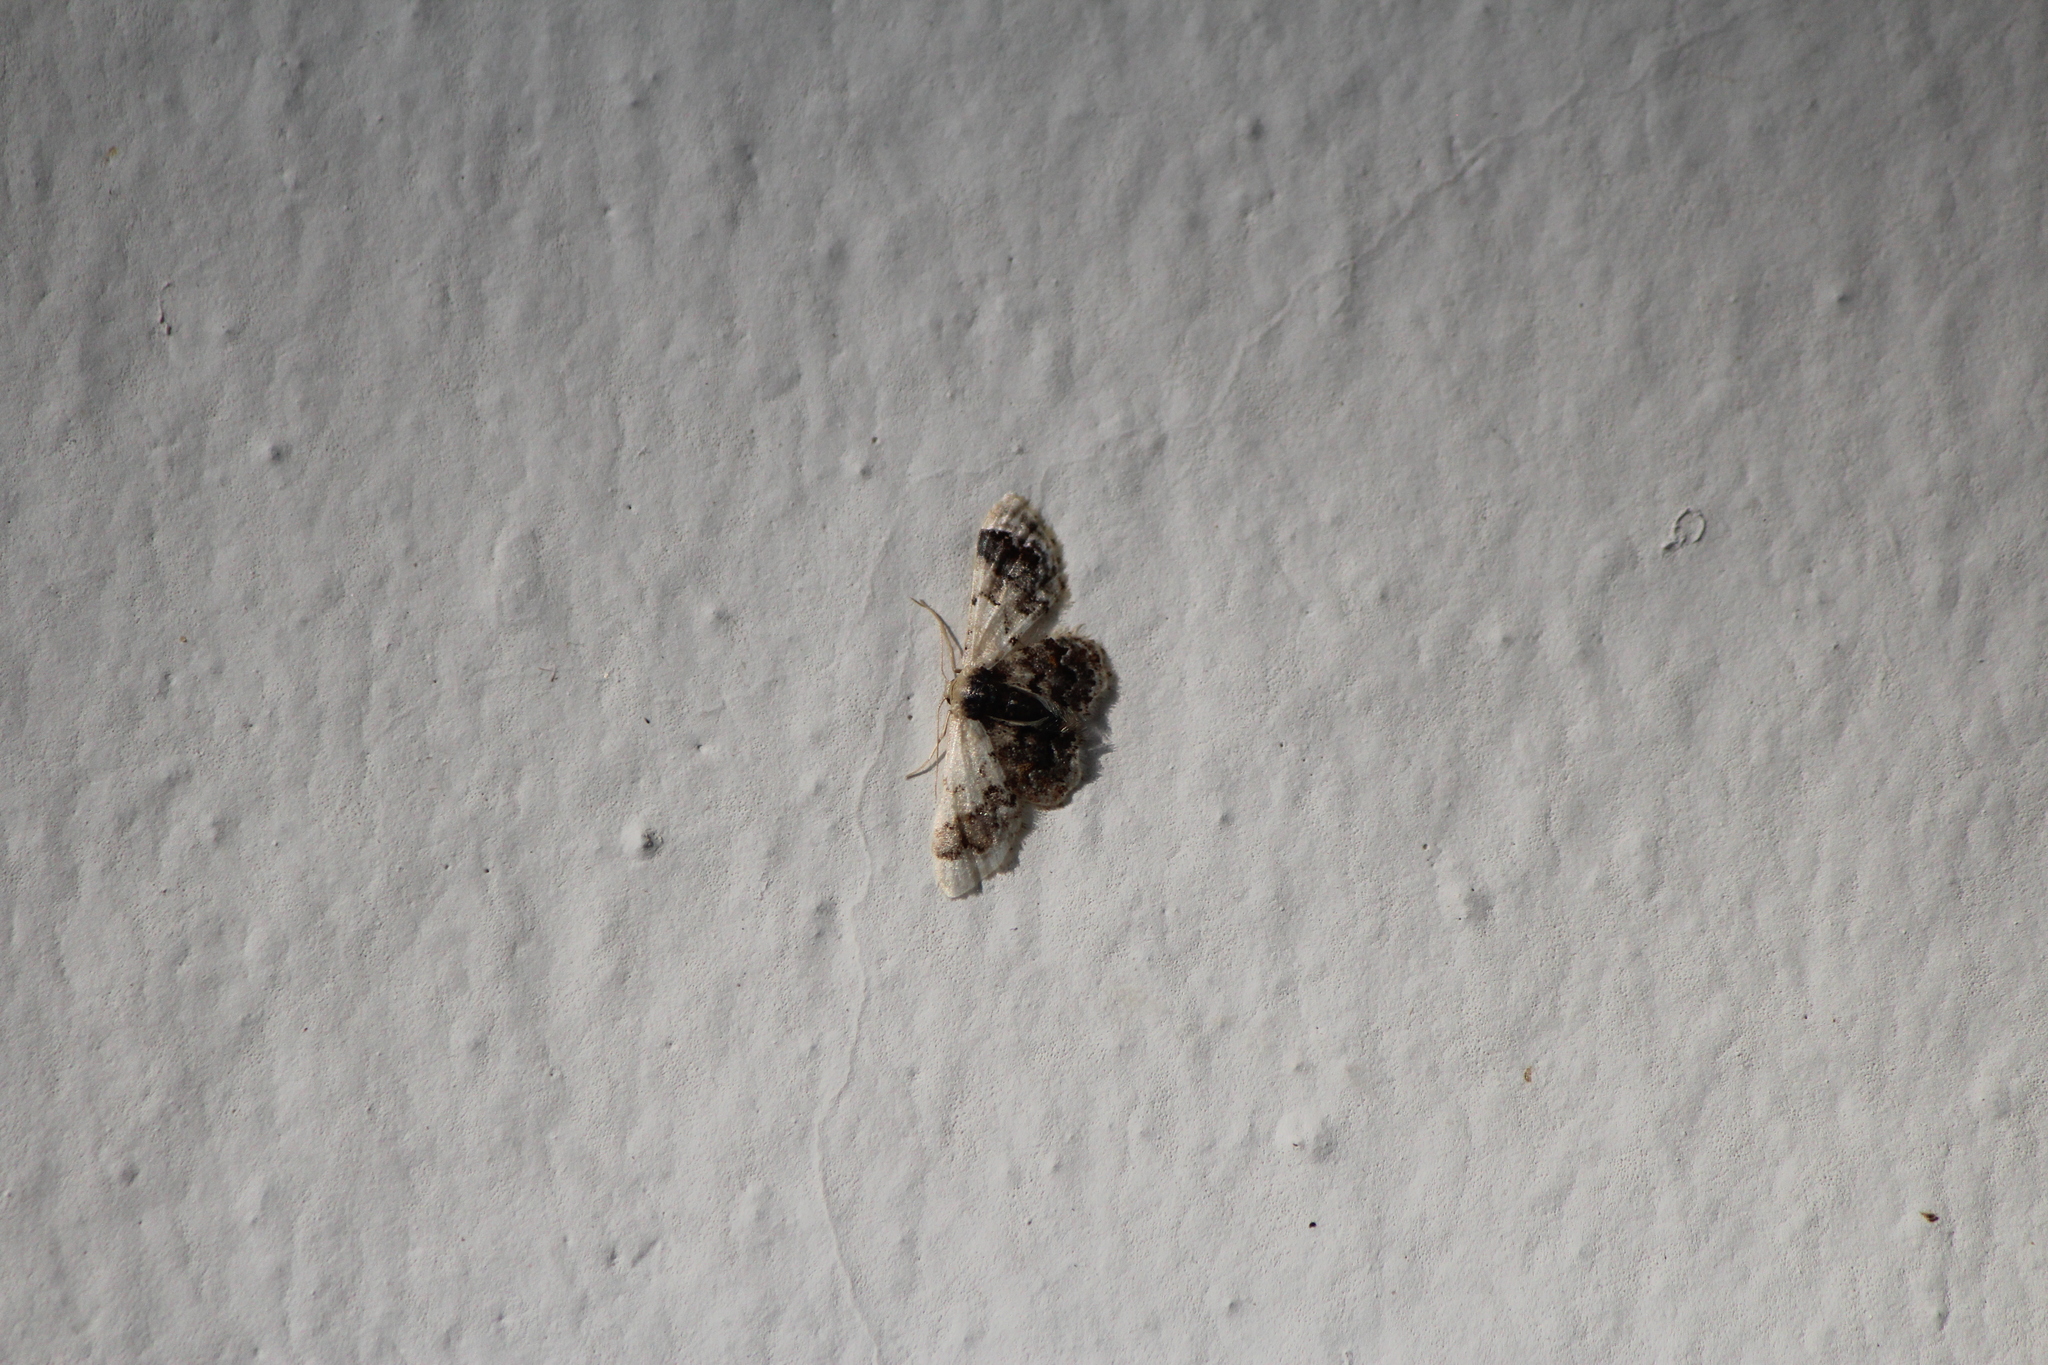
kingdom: Animalia
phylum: Arthropoda
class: Insecta
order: Lepidoptera
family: Geometridae
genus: Idaea
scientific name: Idaea asceta
